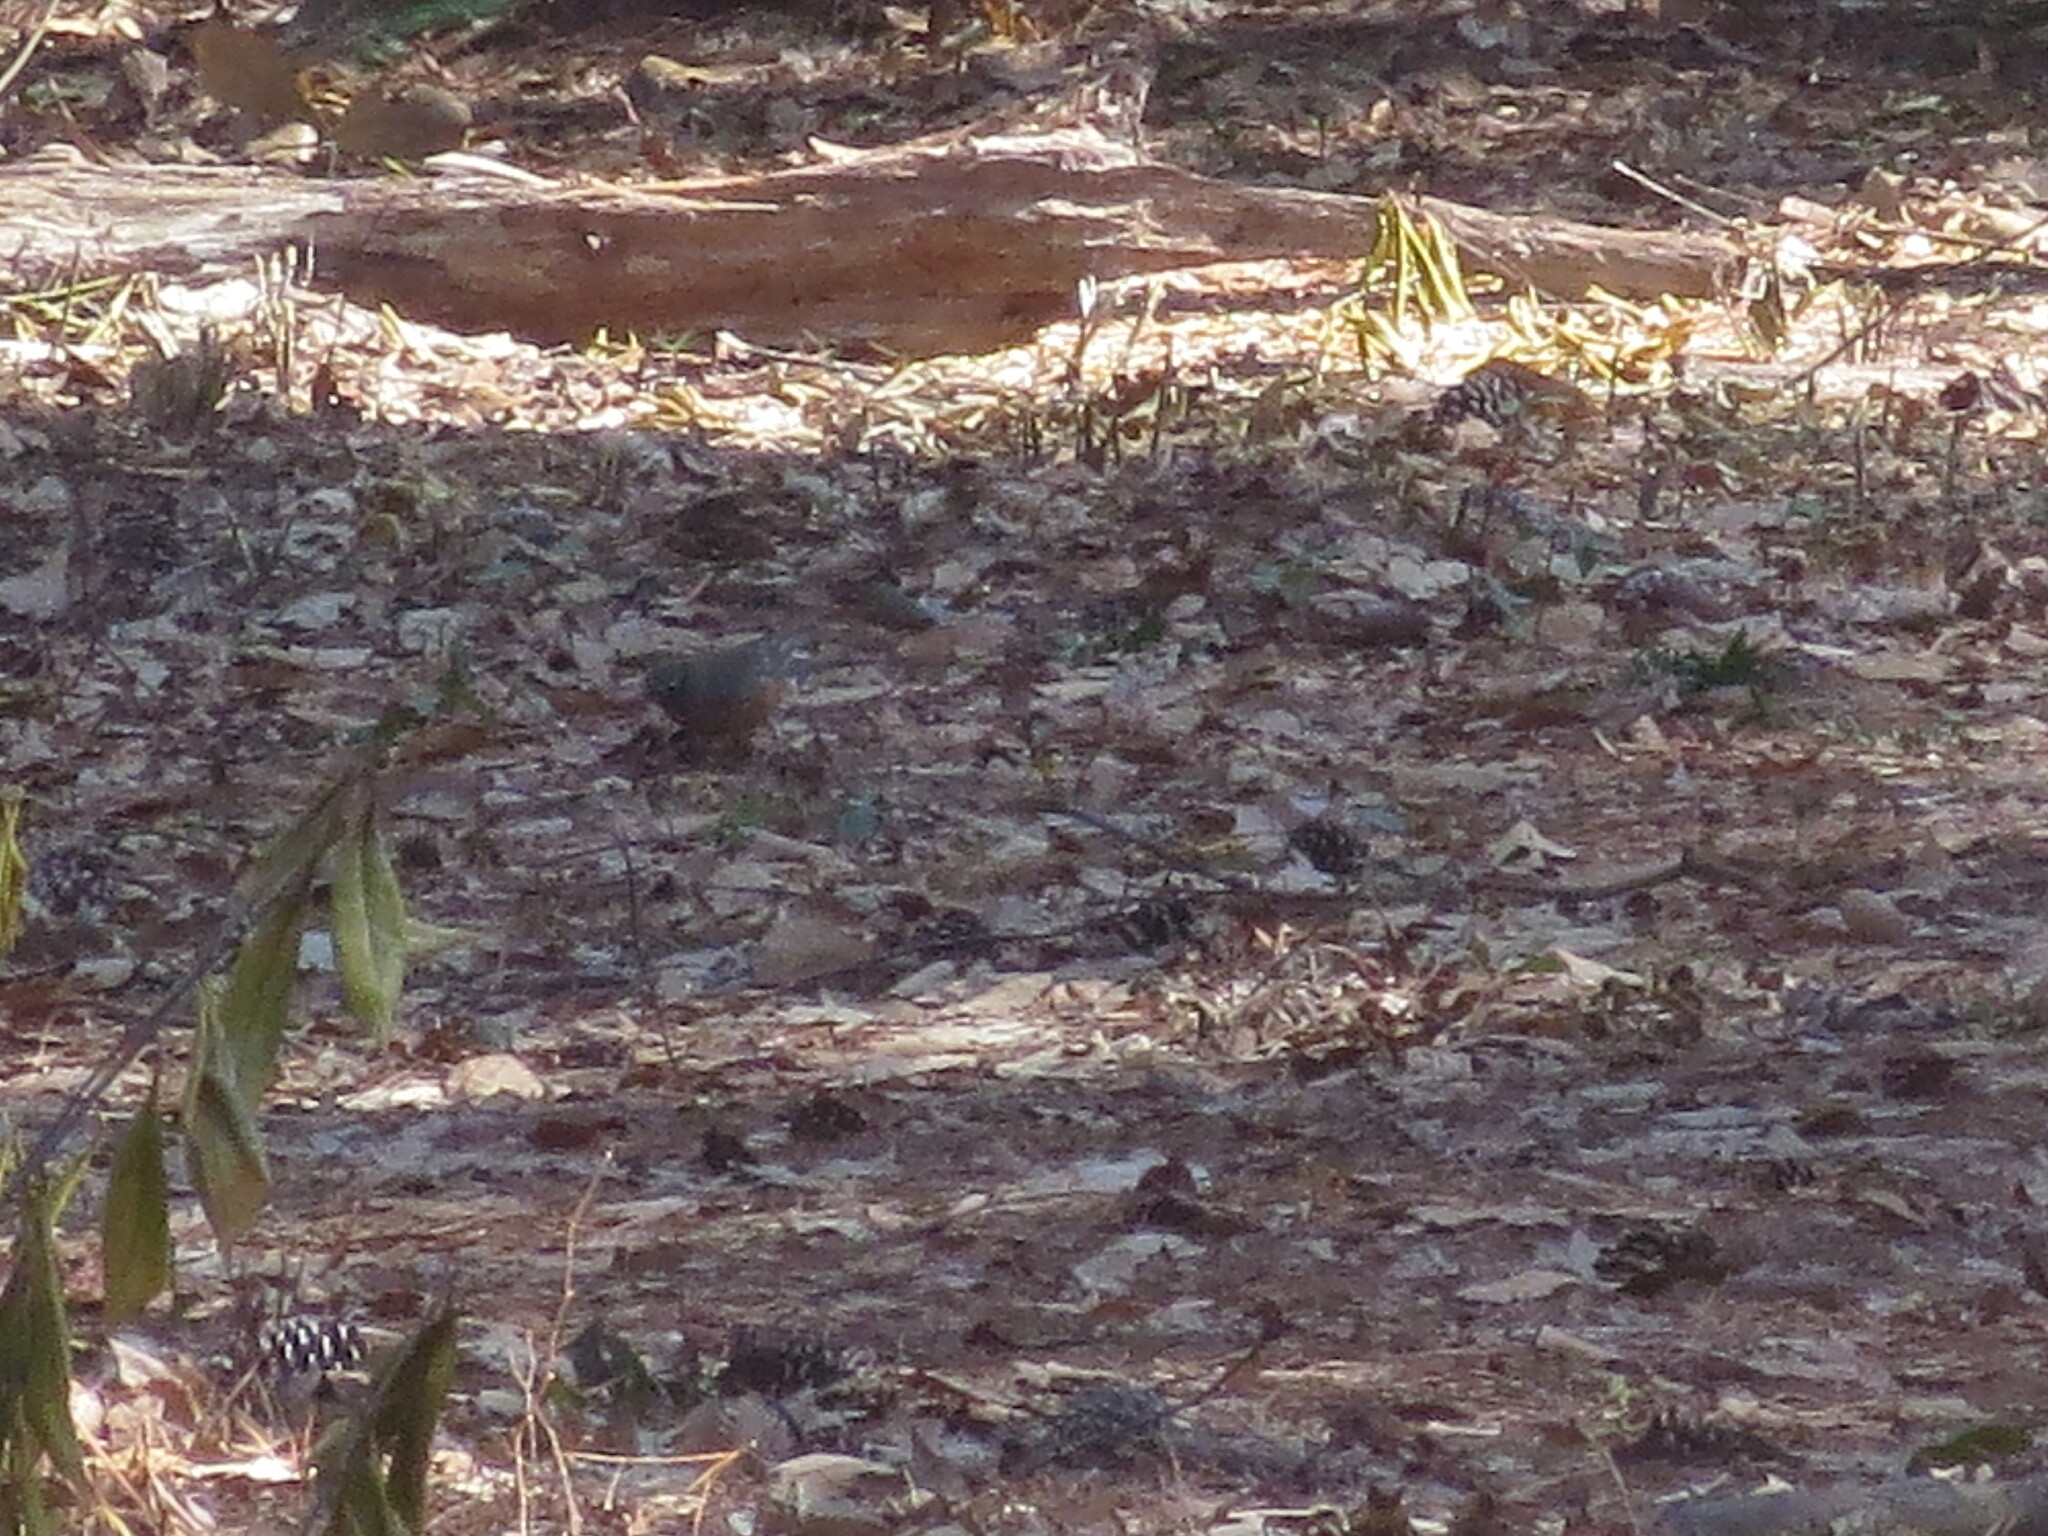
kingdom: Animalia
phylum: Chordata
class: Aves
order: Passeriformes
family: Turdidae
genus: Turdus
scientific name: Turdus migratorius
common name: American robin
